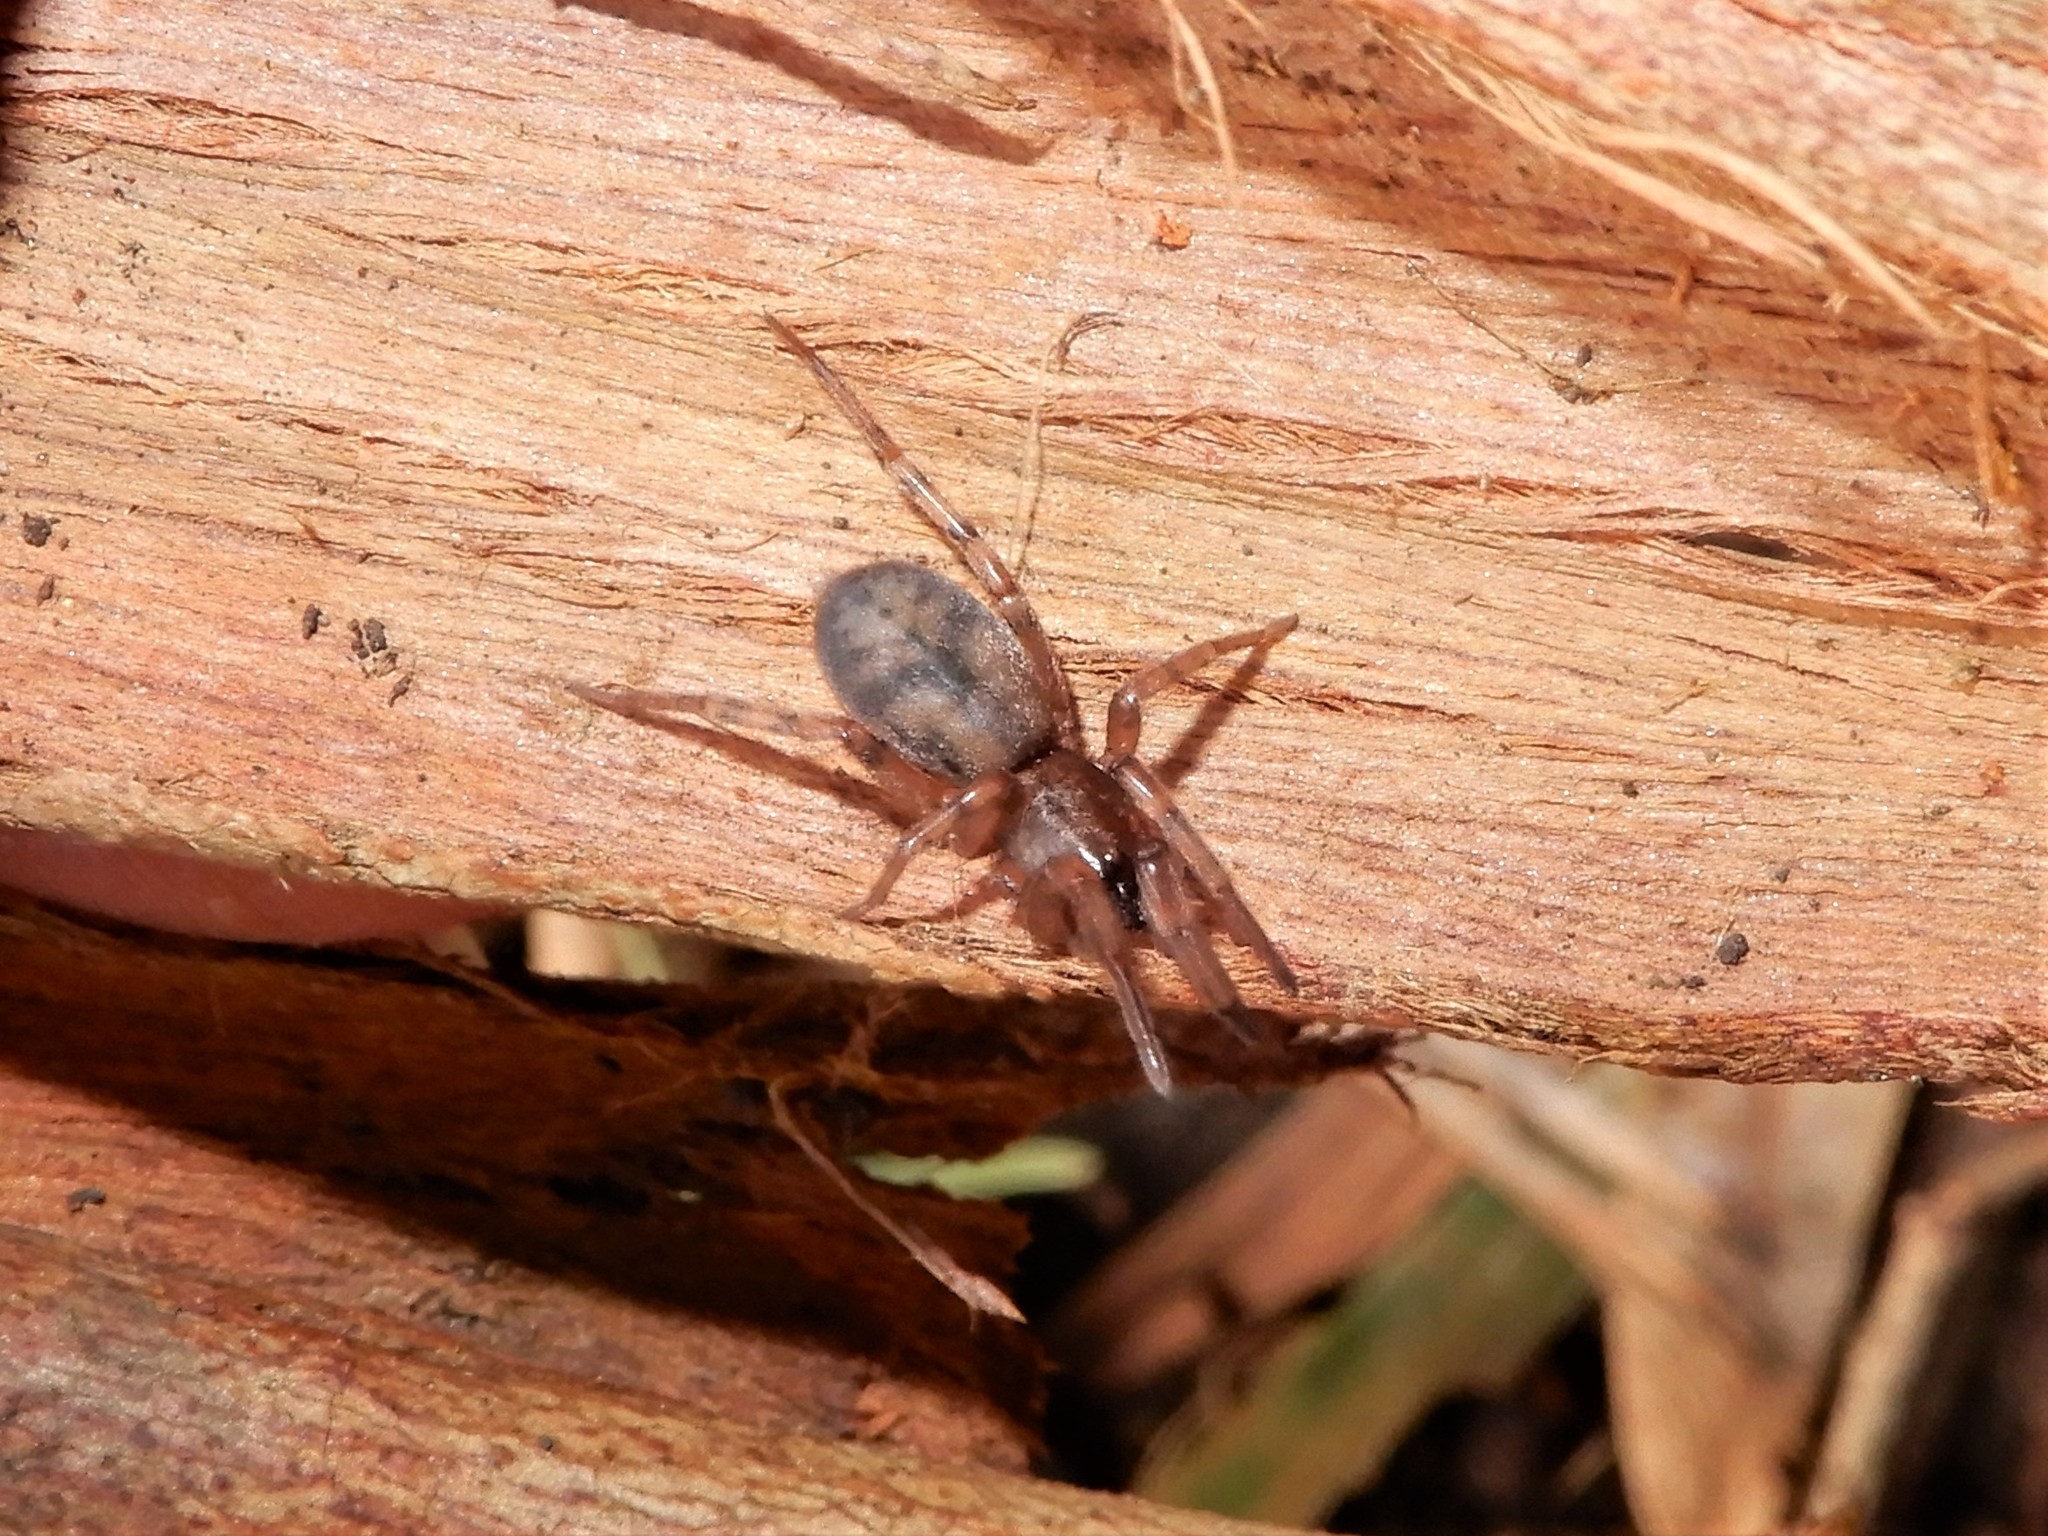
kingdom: Animalia
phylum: Arthropoda
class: Arachnida
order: Araneae
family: Gnaphosidae
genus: Intruda
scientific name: Intruda signata
